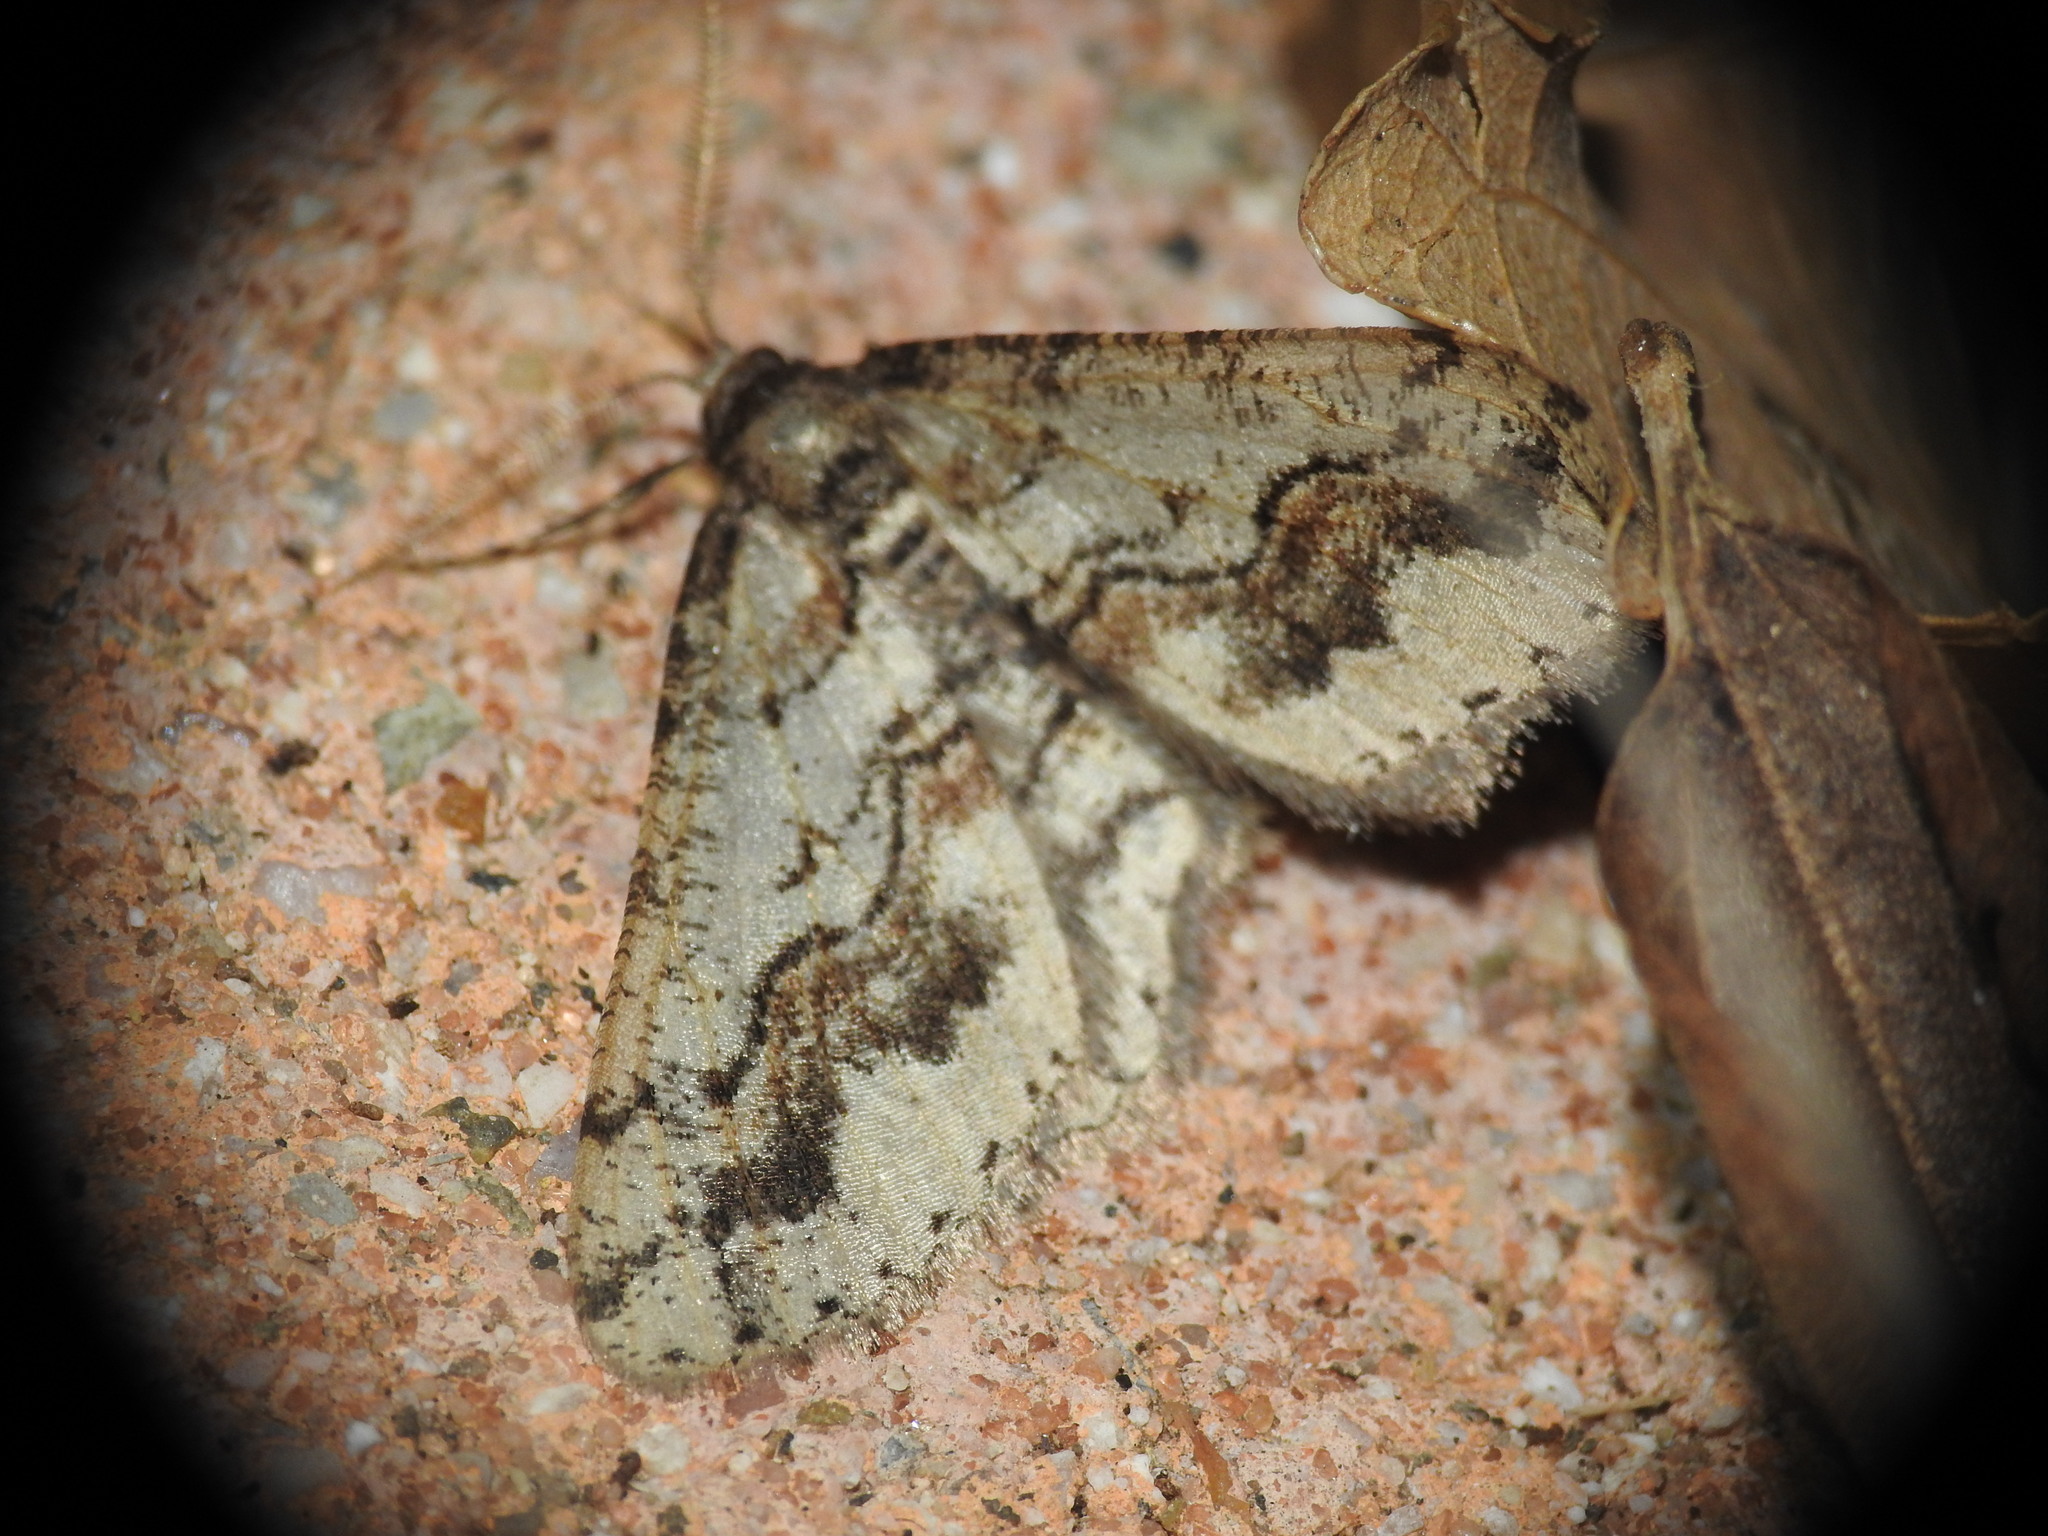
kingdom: Animalia
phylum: Arthropoda
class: Insecta
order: Lepidoptera
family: Geometridae
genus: Agriopis
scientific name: Agriopis bajaria
